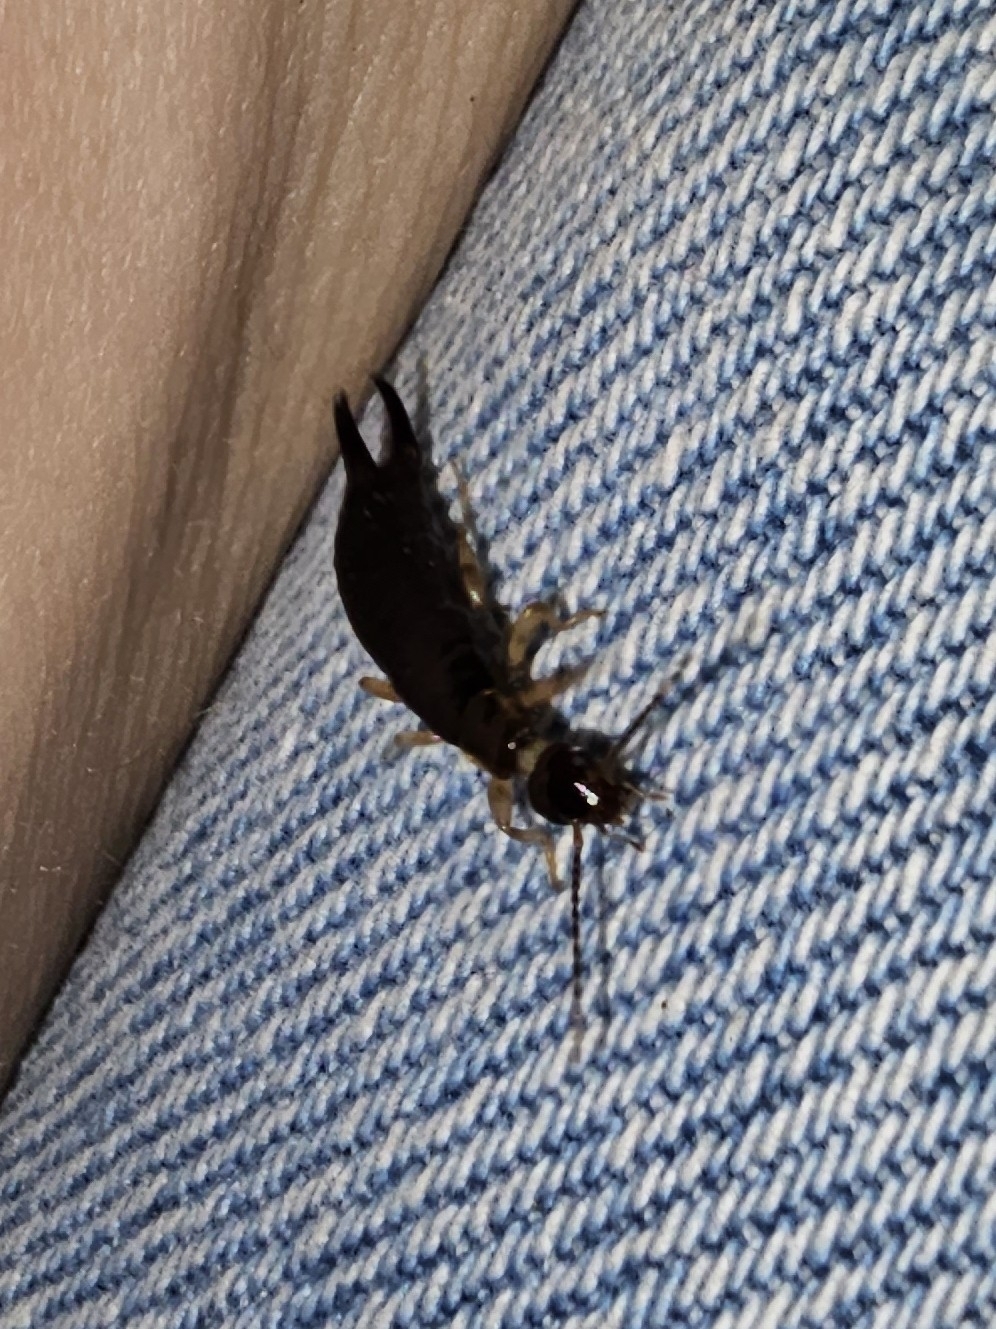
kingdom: Animalia
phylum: Arthropoda
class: Insecta
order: Dermaptera
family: Anisolabididae
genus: Euborellia
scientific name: Euborellia annulipes
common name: Ringlegged earwig
